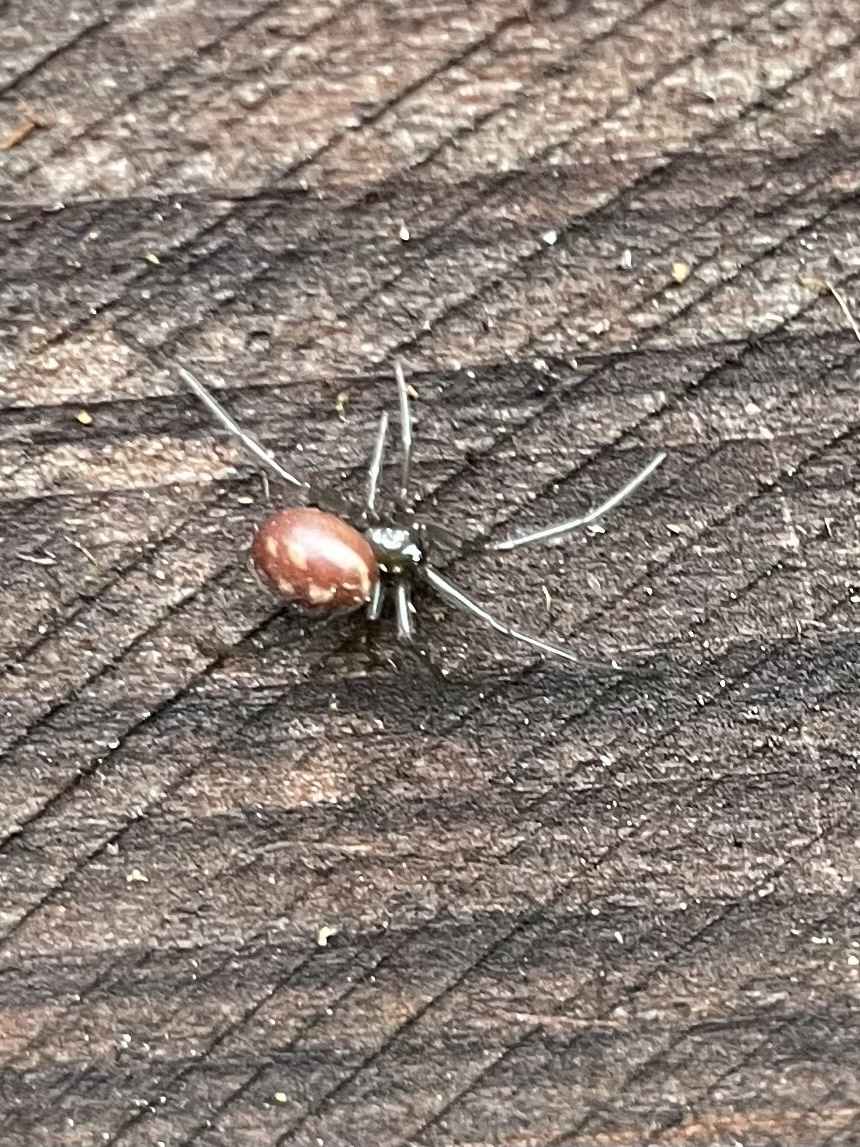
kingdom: Animalia
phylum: Arthropoda
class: Arachnida
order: Araneae
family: Theridiidae
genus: Steatoda
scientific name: Steatoda grossa
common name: False black widow
